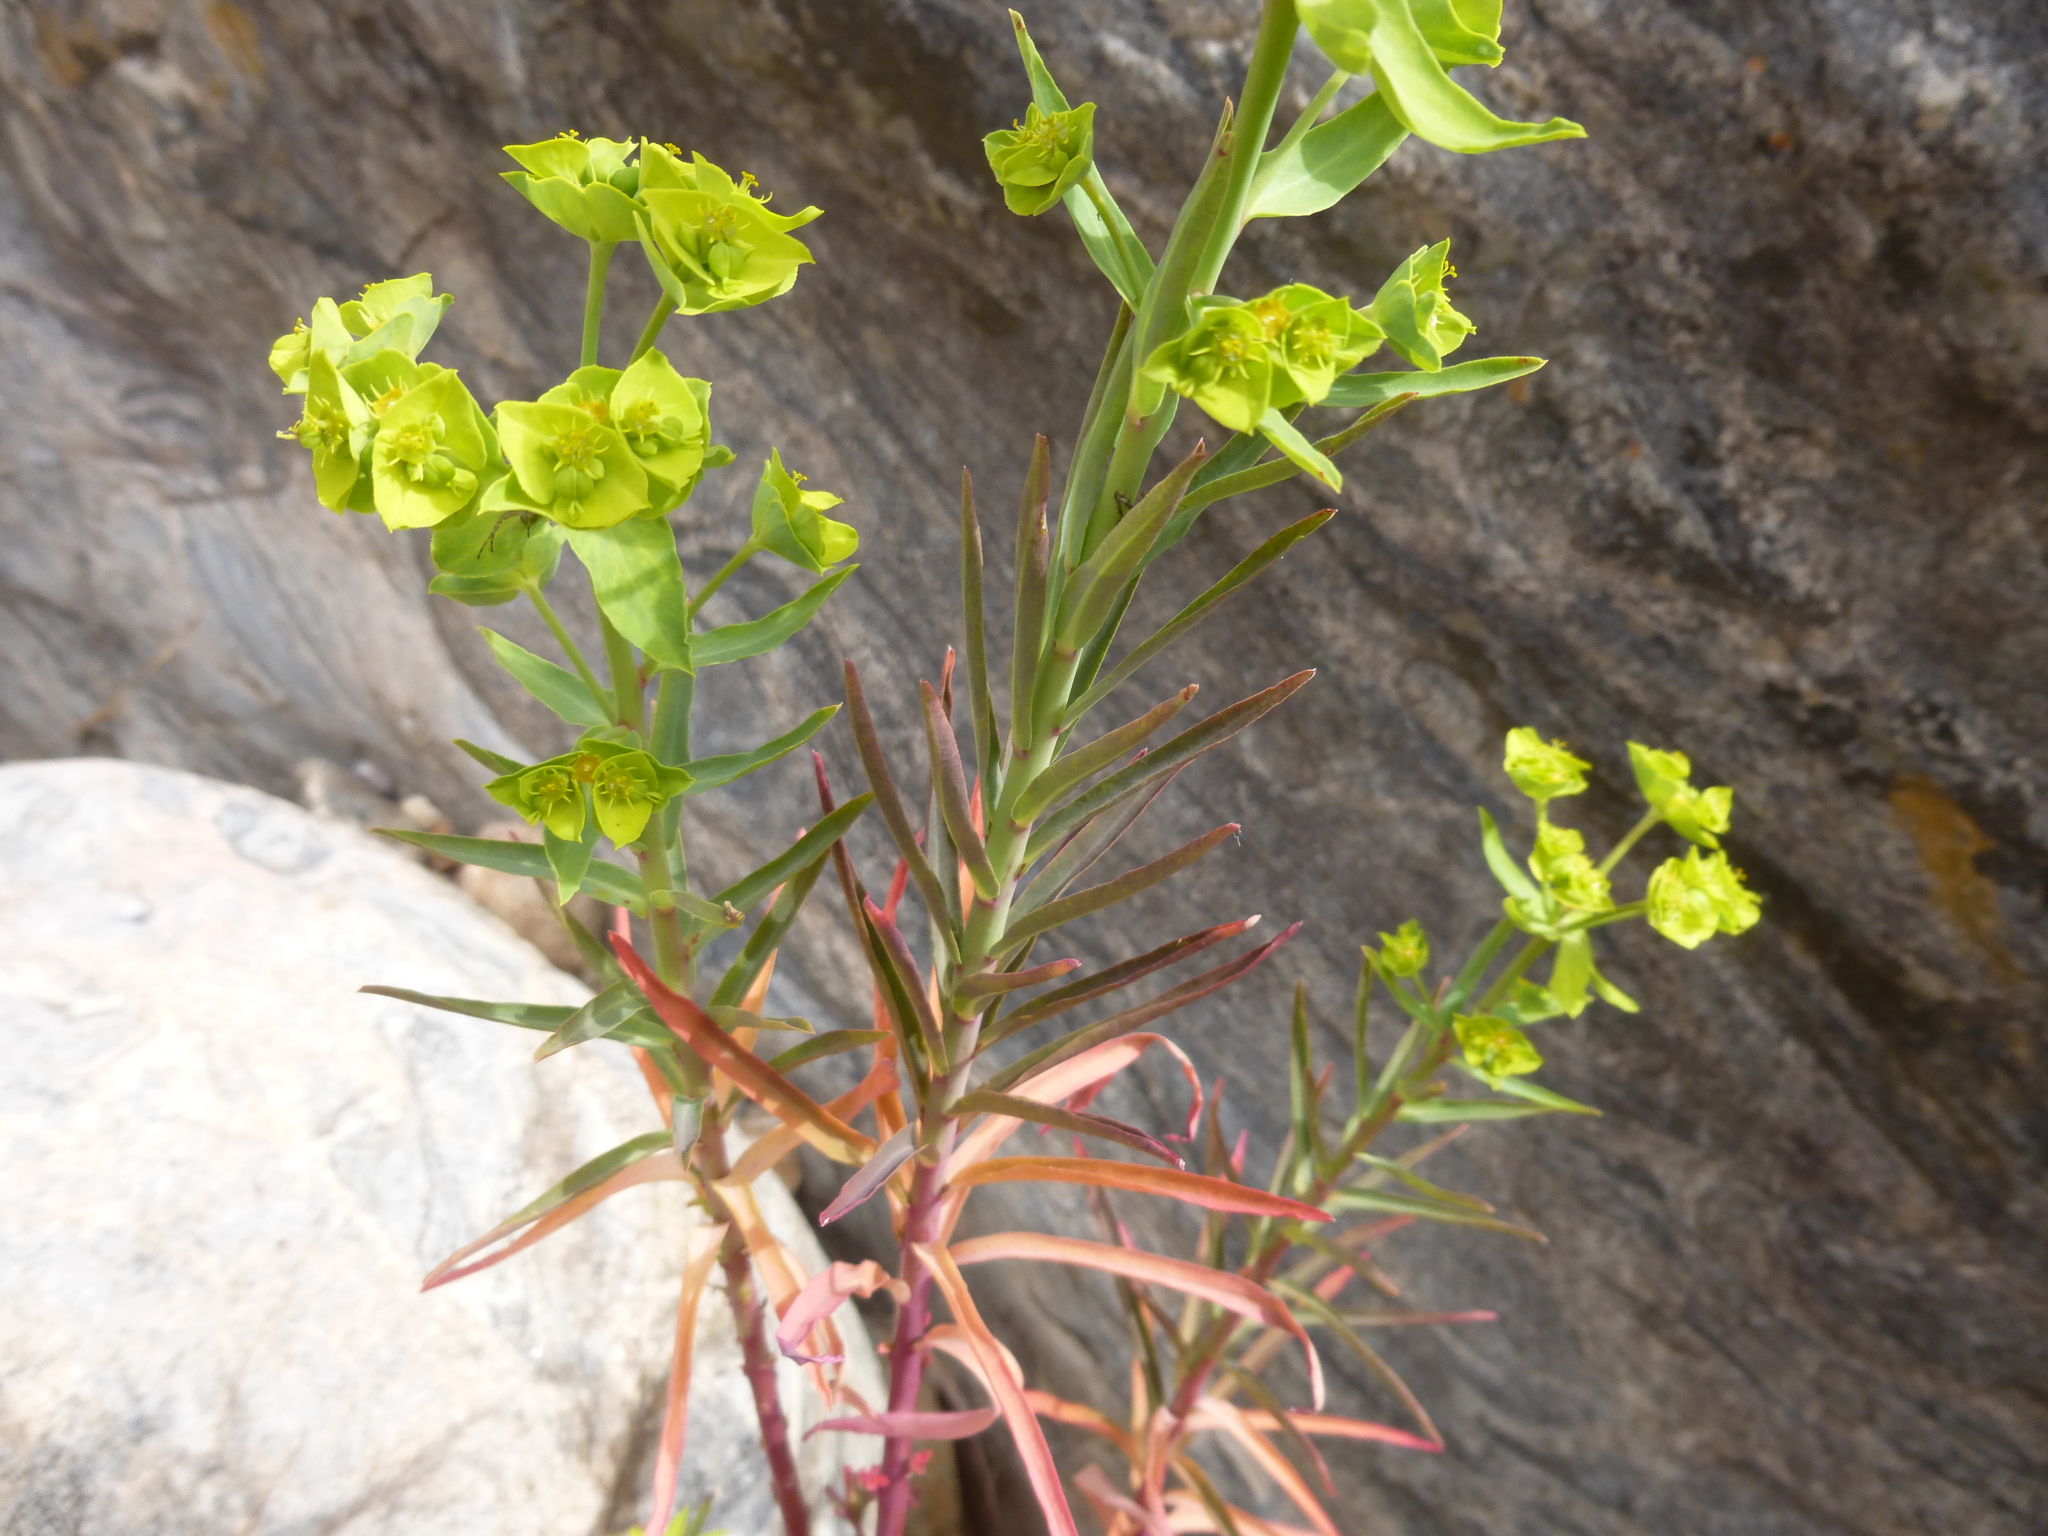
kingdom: Plantae
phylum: Tracheophyta
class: Magnoliopsida
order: Malpighiales
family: Euphorbiaceae
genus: Euphorbia
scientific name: Euphorbia terracina
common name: Geraldton carnation weed
